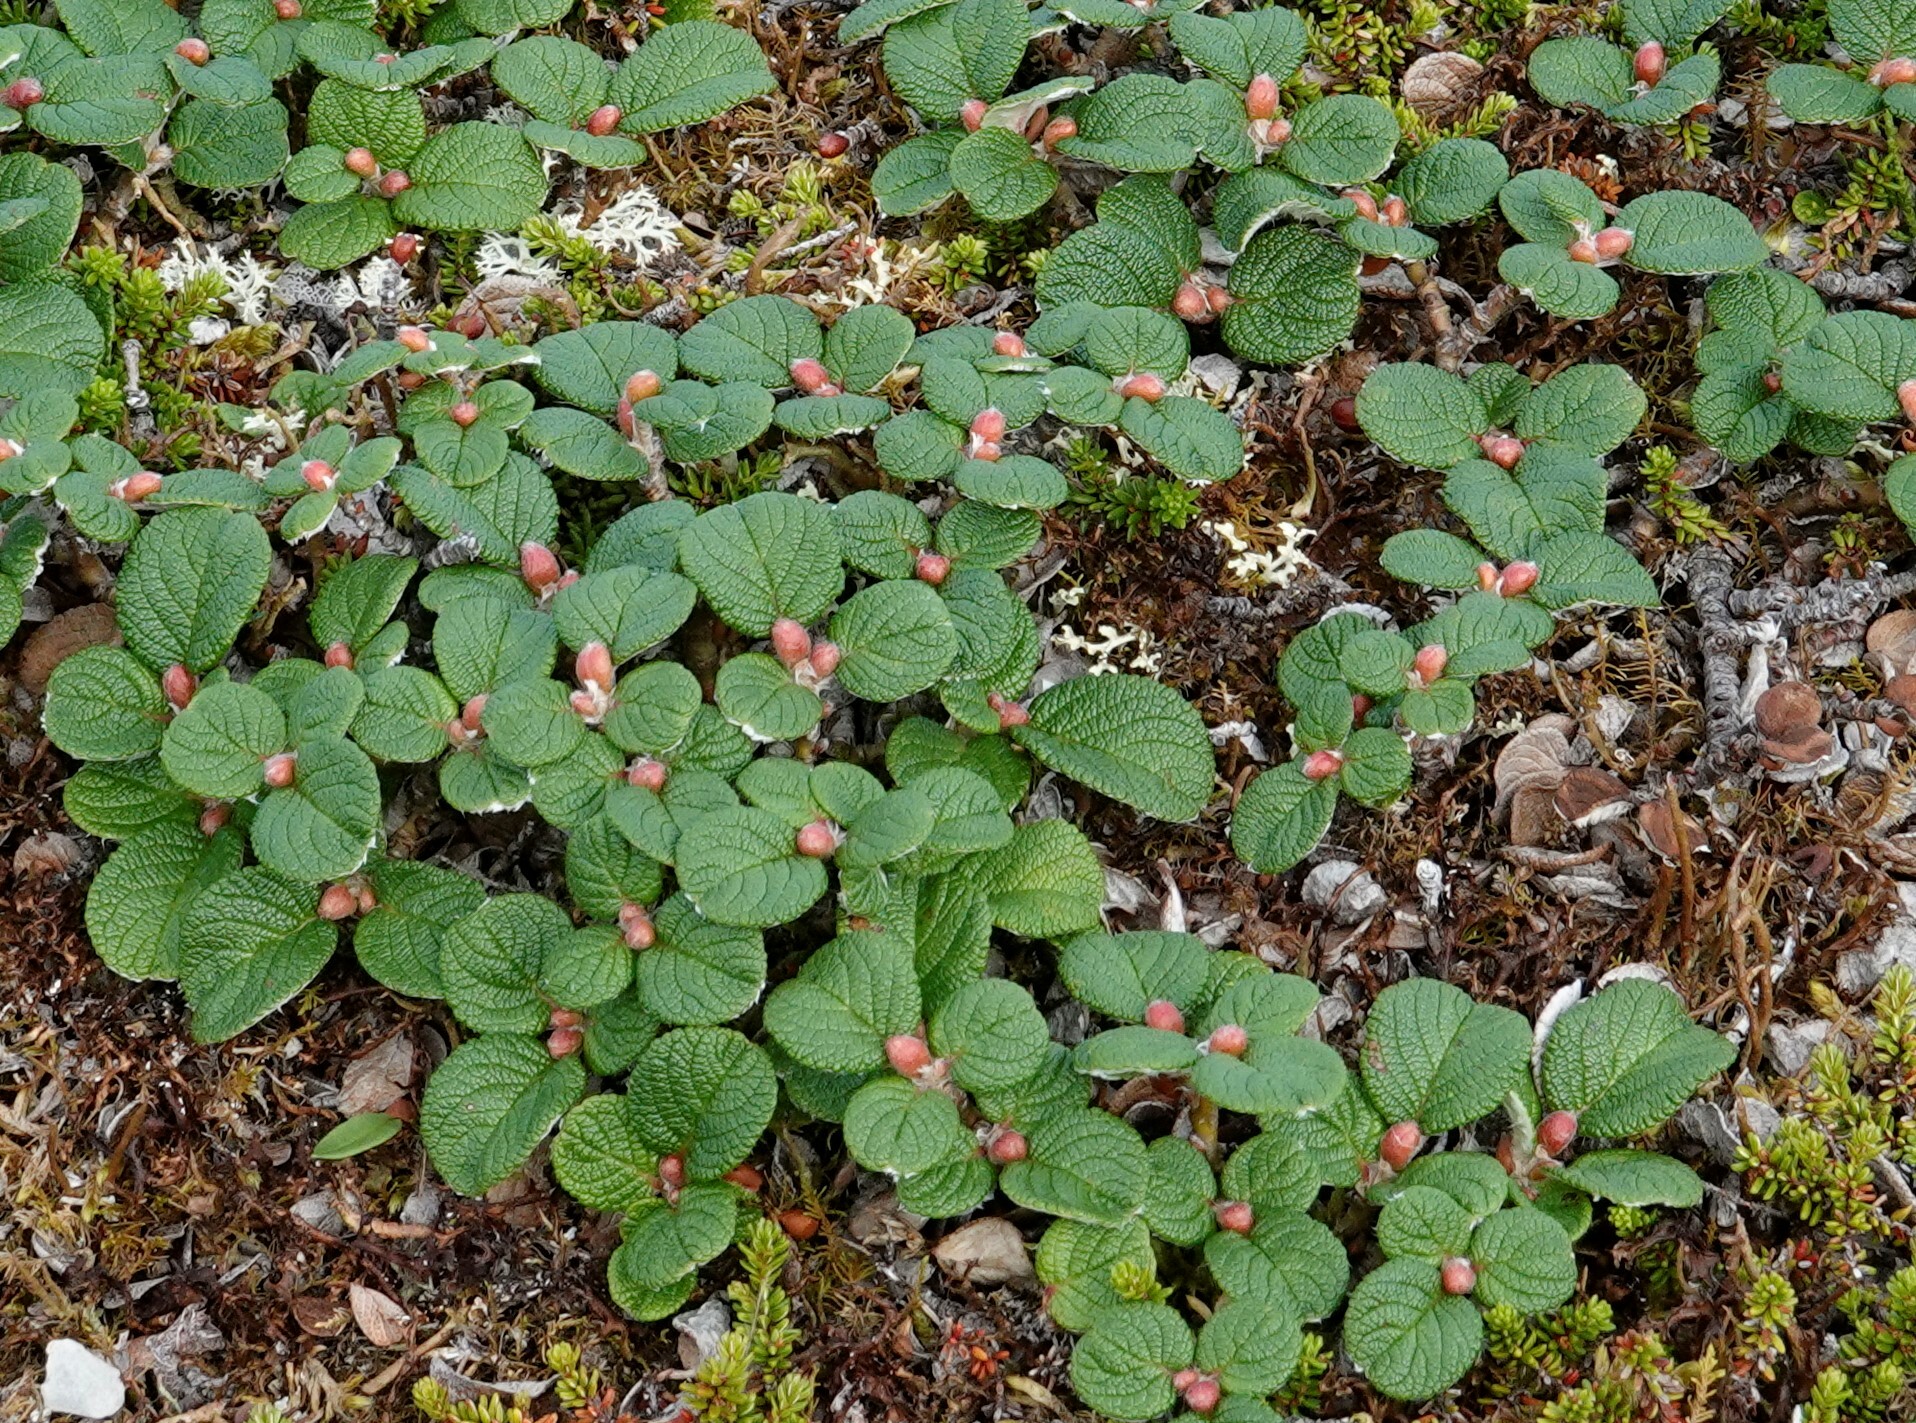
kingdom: Plantae
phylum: Tracheophyta
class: Magnoliopsida
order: Malpighiales
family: Salicaceae
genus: Salix
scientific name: Salix vestita
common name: Hairy willow
